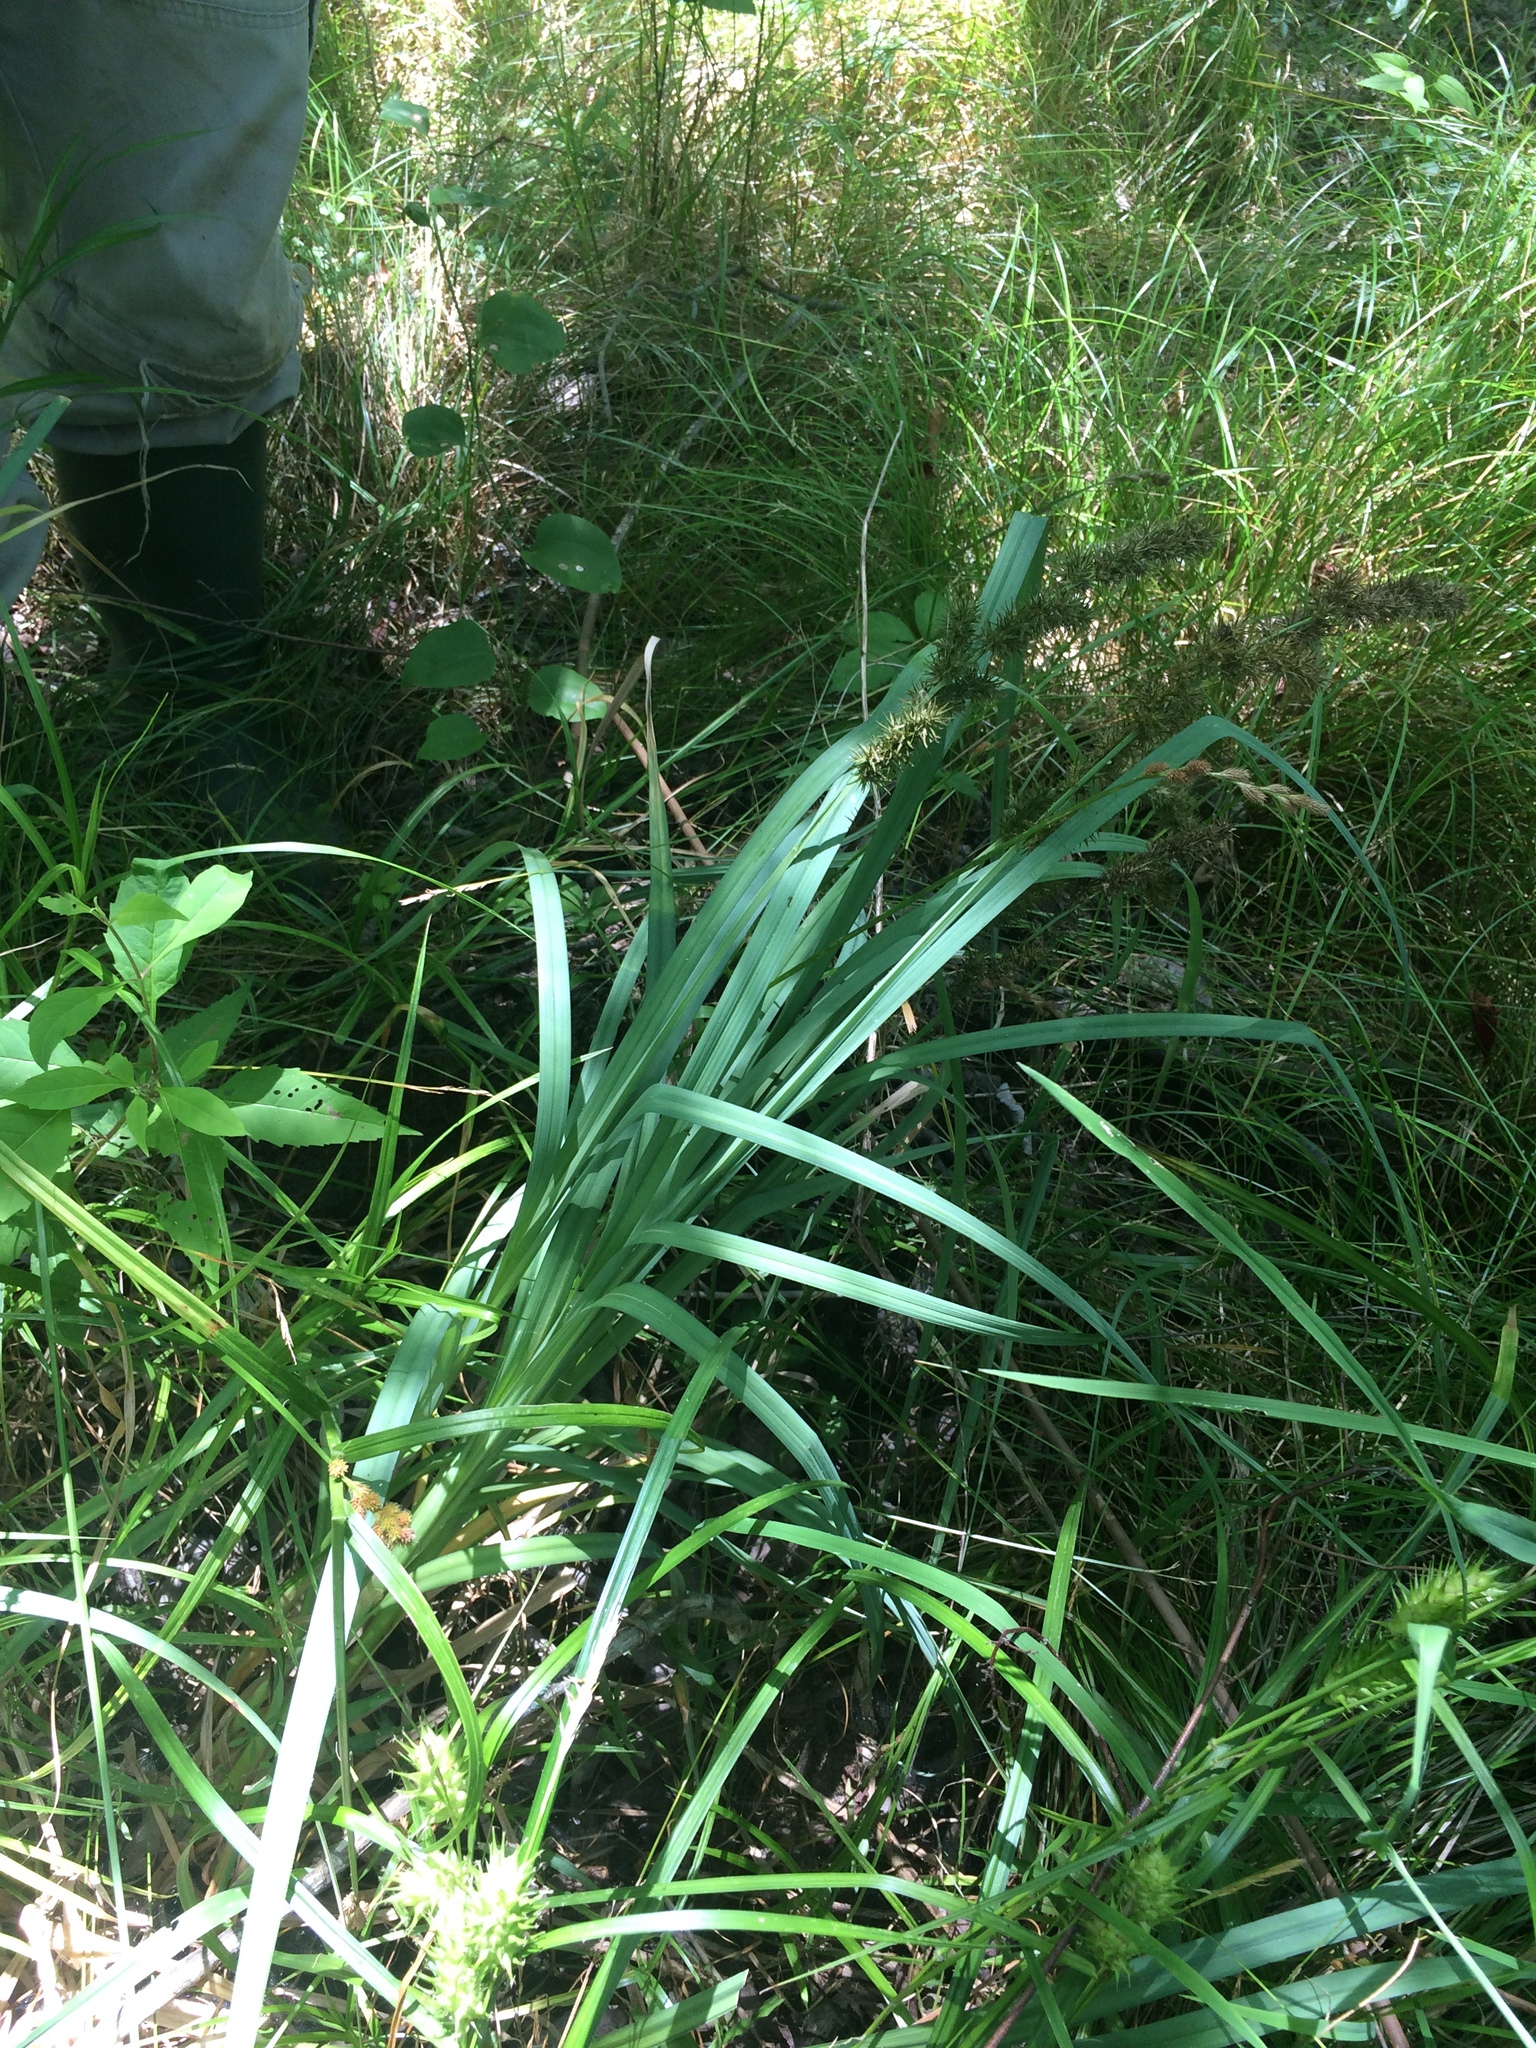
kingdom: Plantae
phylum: Tracheophyta
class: Liliopsida
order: Poales
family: Cyperaceae
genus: Carex
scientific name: Carex crus-corvi
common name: Crow-spur sedge
